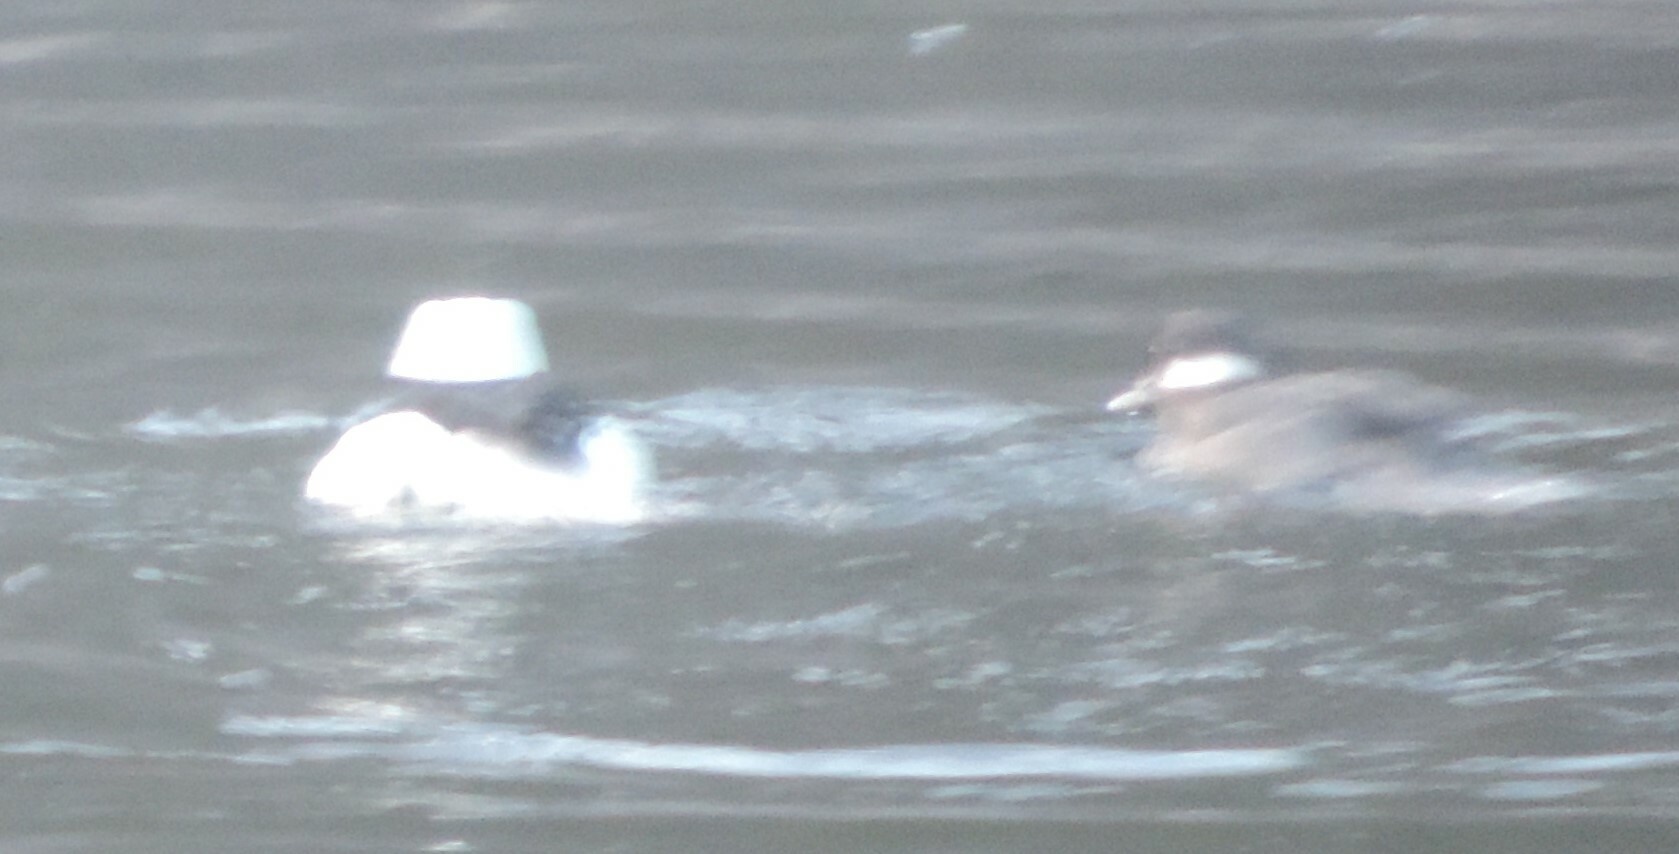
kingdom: Animalia
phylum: Chordata
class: Aves
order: Anseriformes
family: Anatidae
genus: Bucephala
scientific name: Bucephala albeola
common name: Bufflehead
